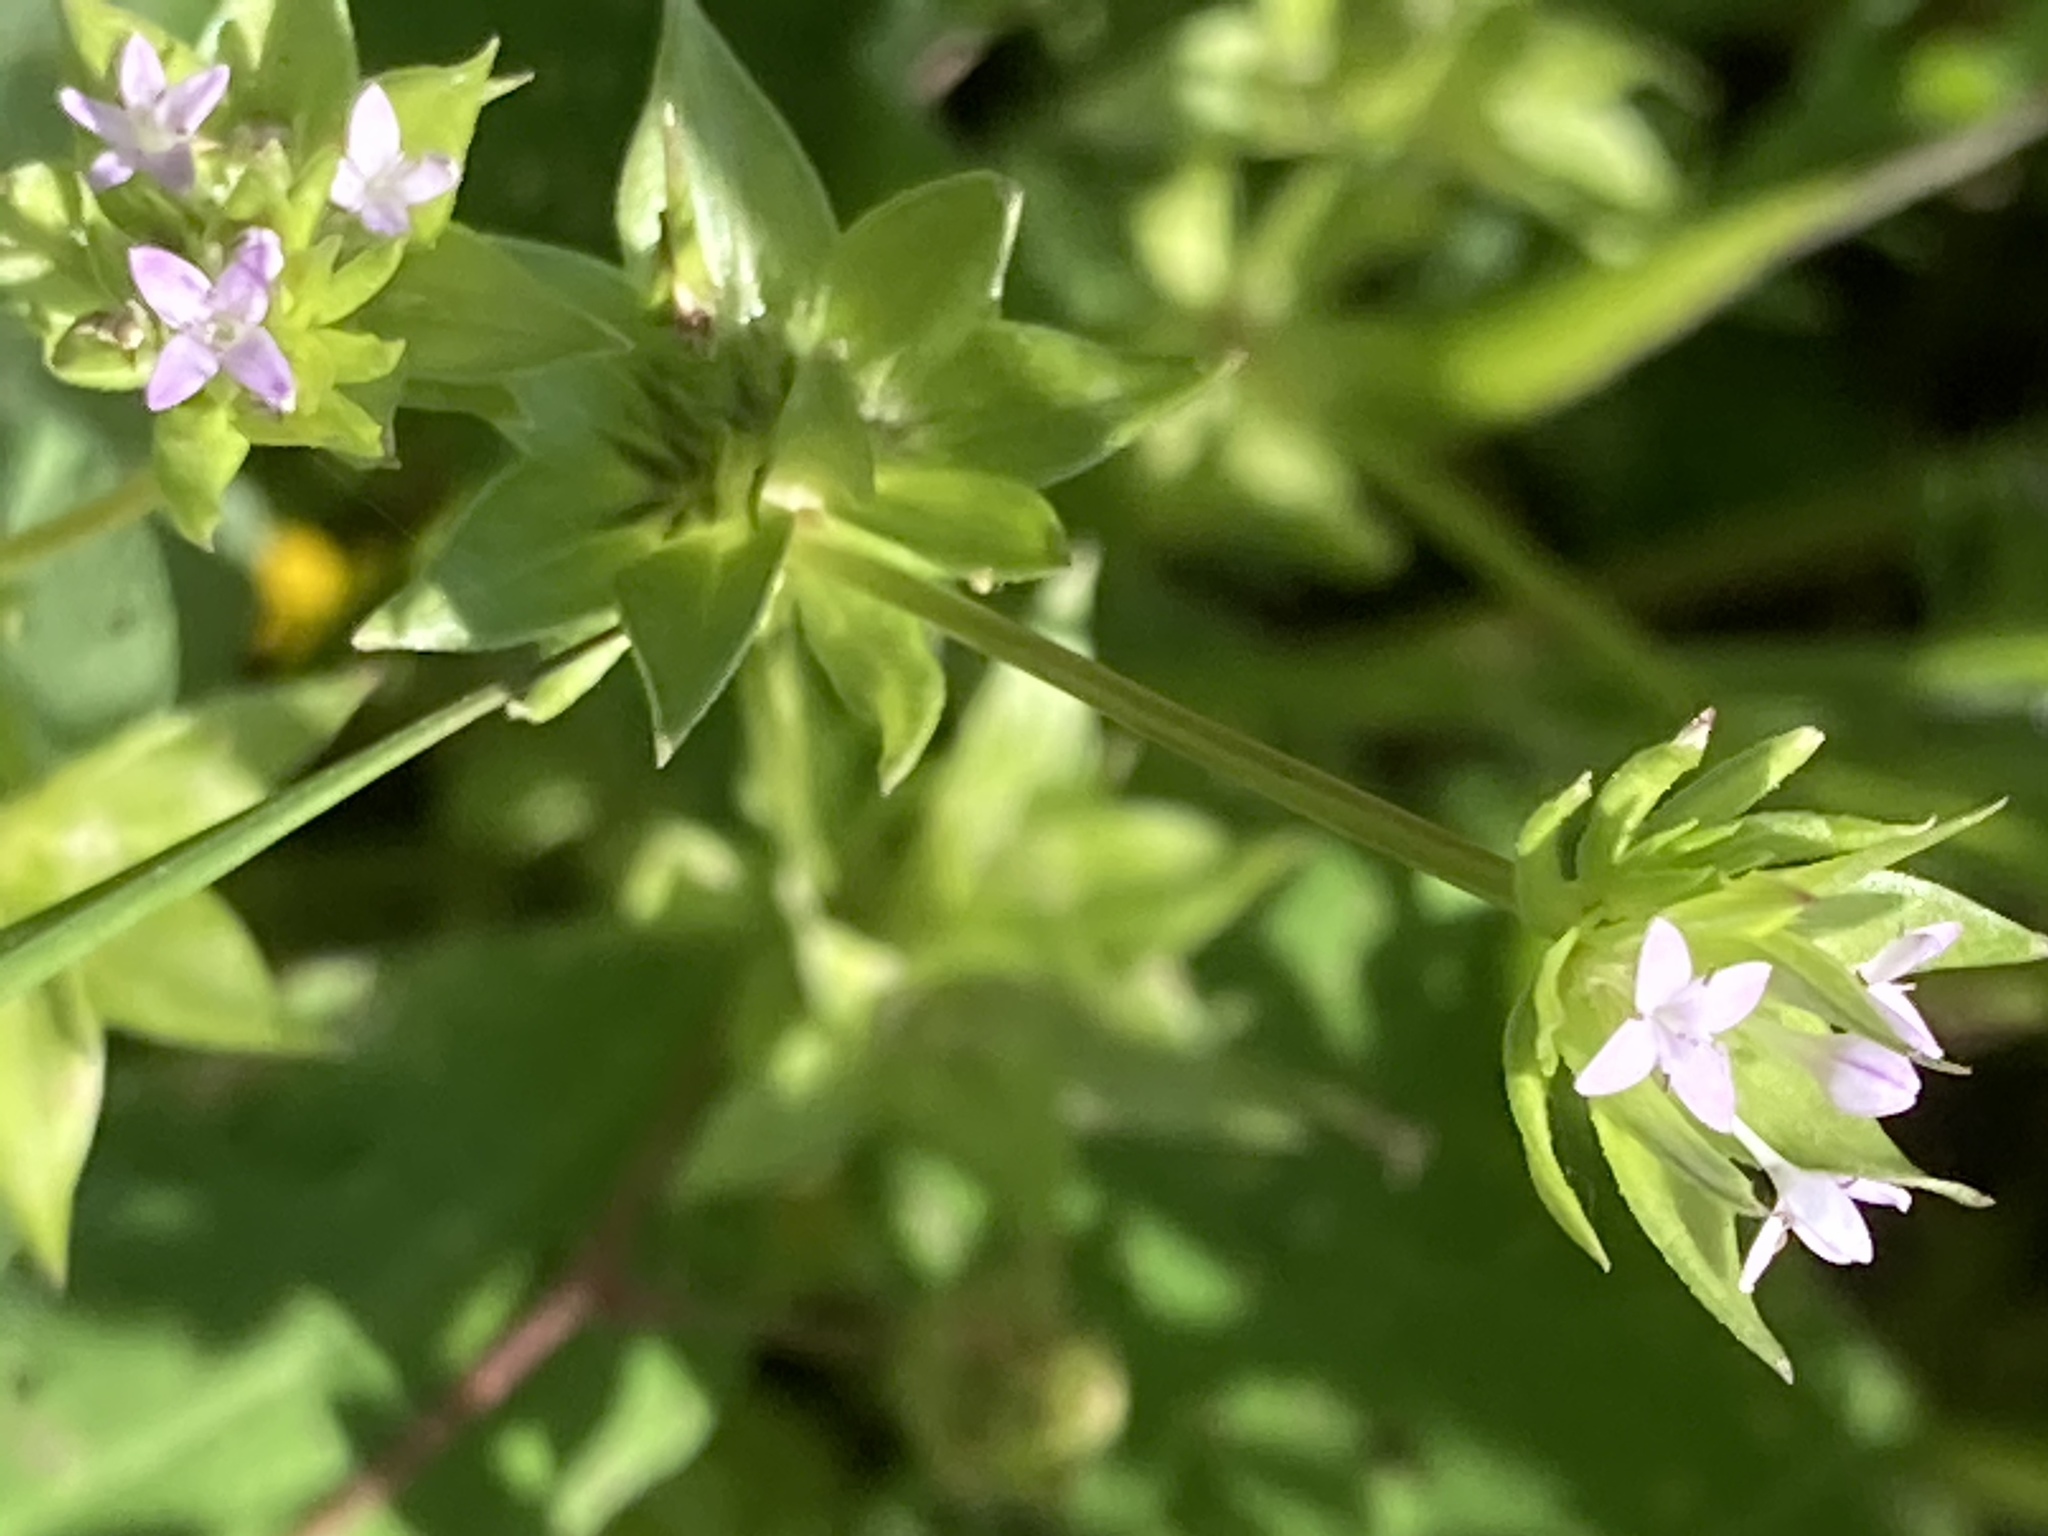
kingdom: Plantae
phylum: Tracheophyta
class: Magnoliopsida
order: Gentianales
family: Rubiaceae
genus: Sherardia
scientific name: Sherardia arvensis
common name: Field madder
